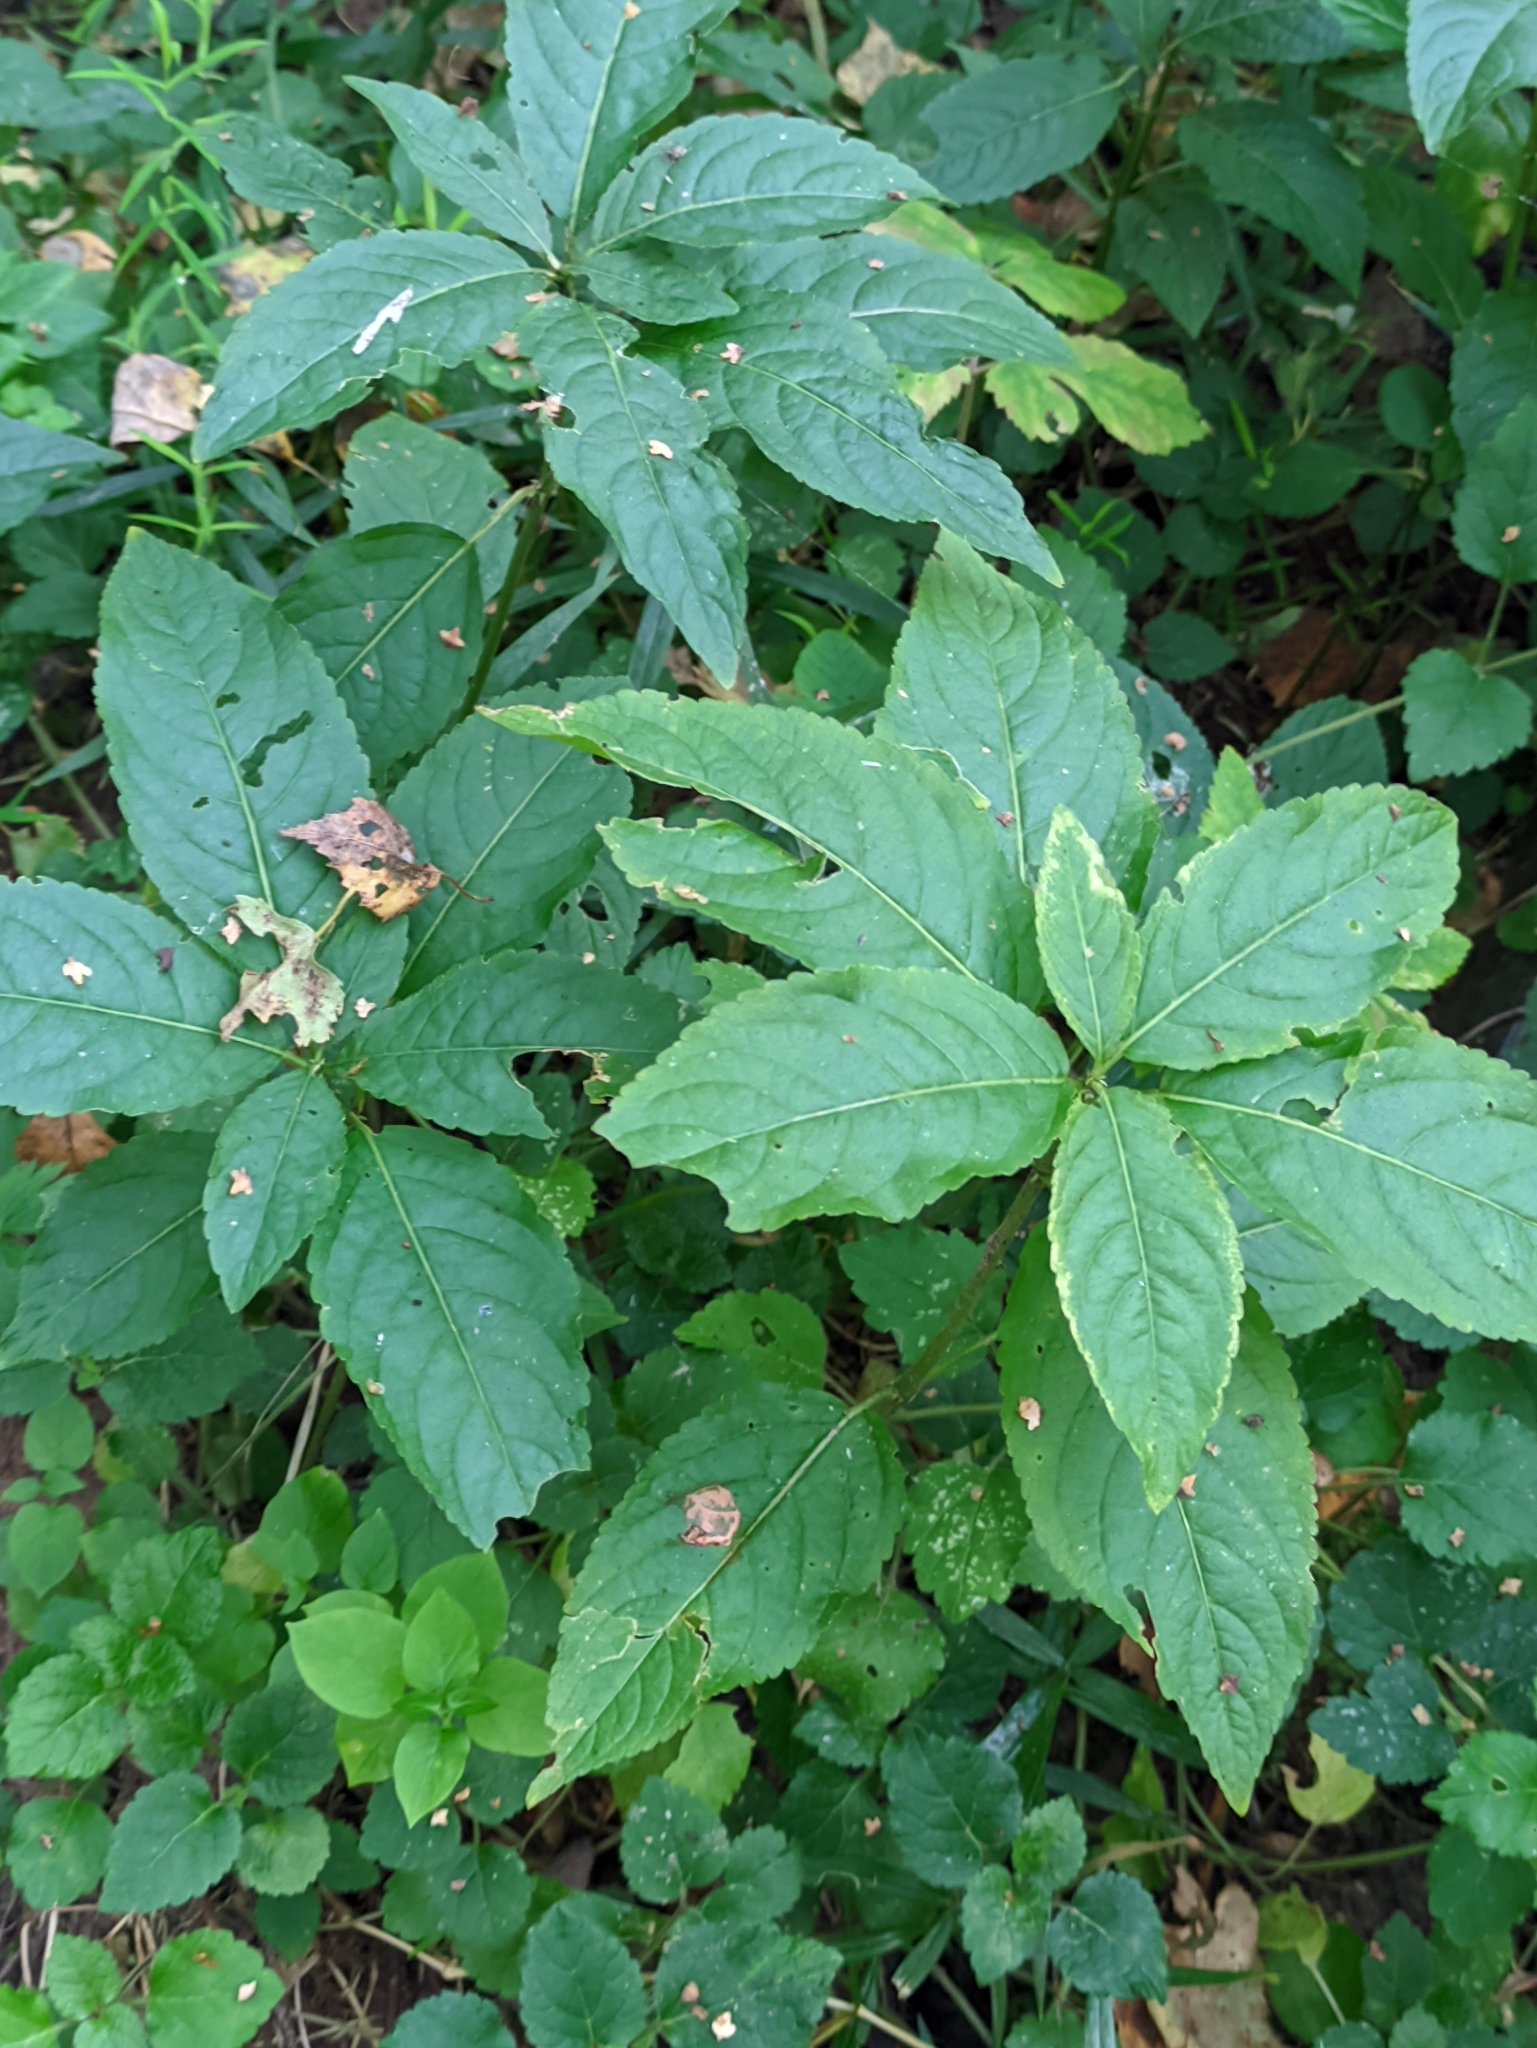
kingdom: Plantae
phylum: Tracheophyta
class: Magnoliopsida
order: Malpighiales
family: Euphorbiaceae
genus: Mercurialis
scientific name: Mercurialis perennis
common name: Dog mercury
